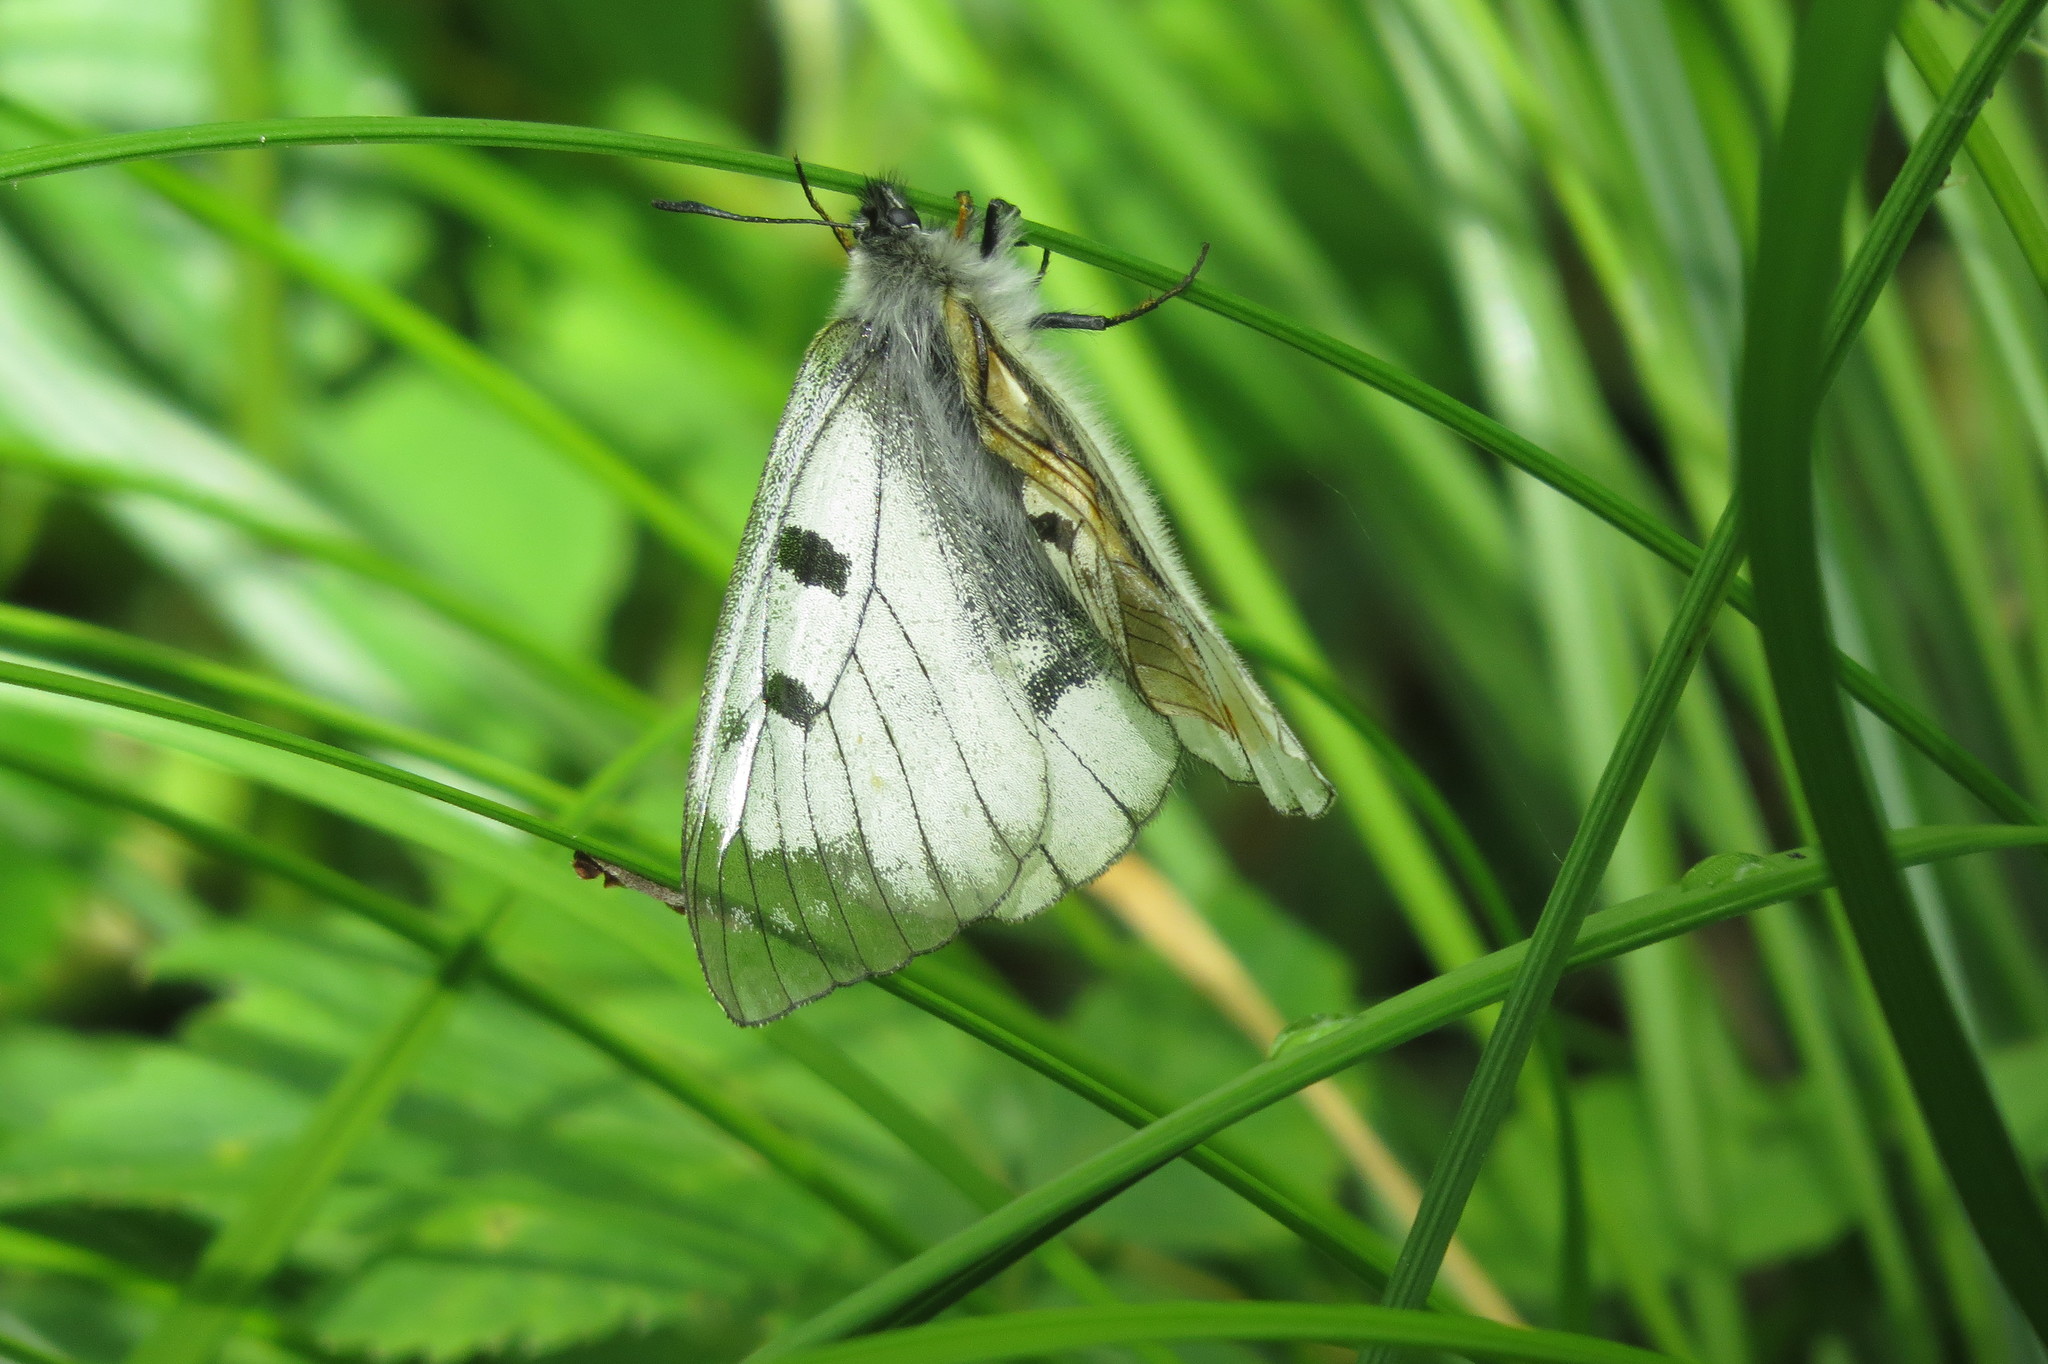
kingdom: Animalia
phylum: Arthropoda
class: Insecta
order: Lepidoptera
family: Papilionidae
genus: Parnassius
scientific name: Parnassius mnemosyne
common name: Clouded apollo
